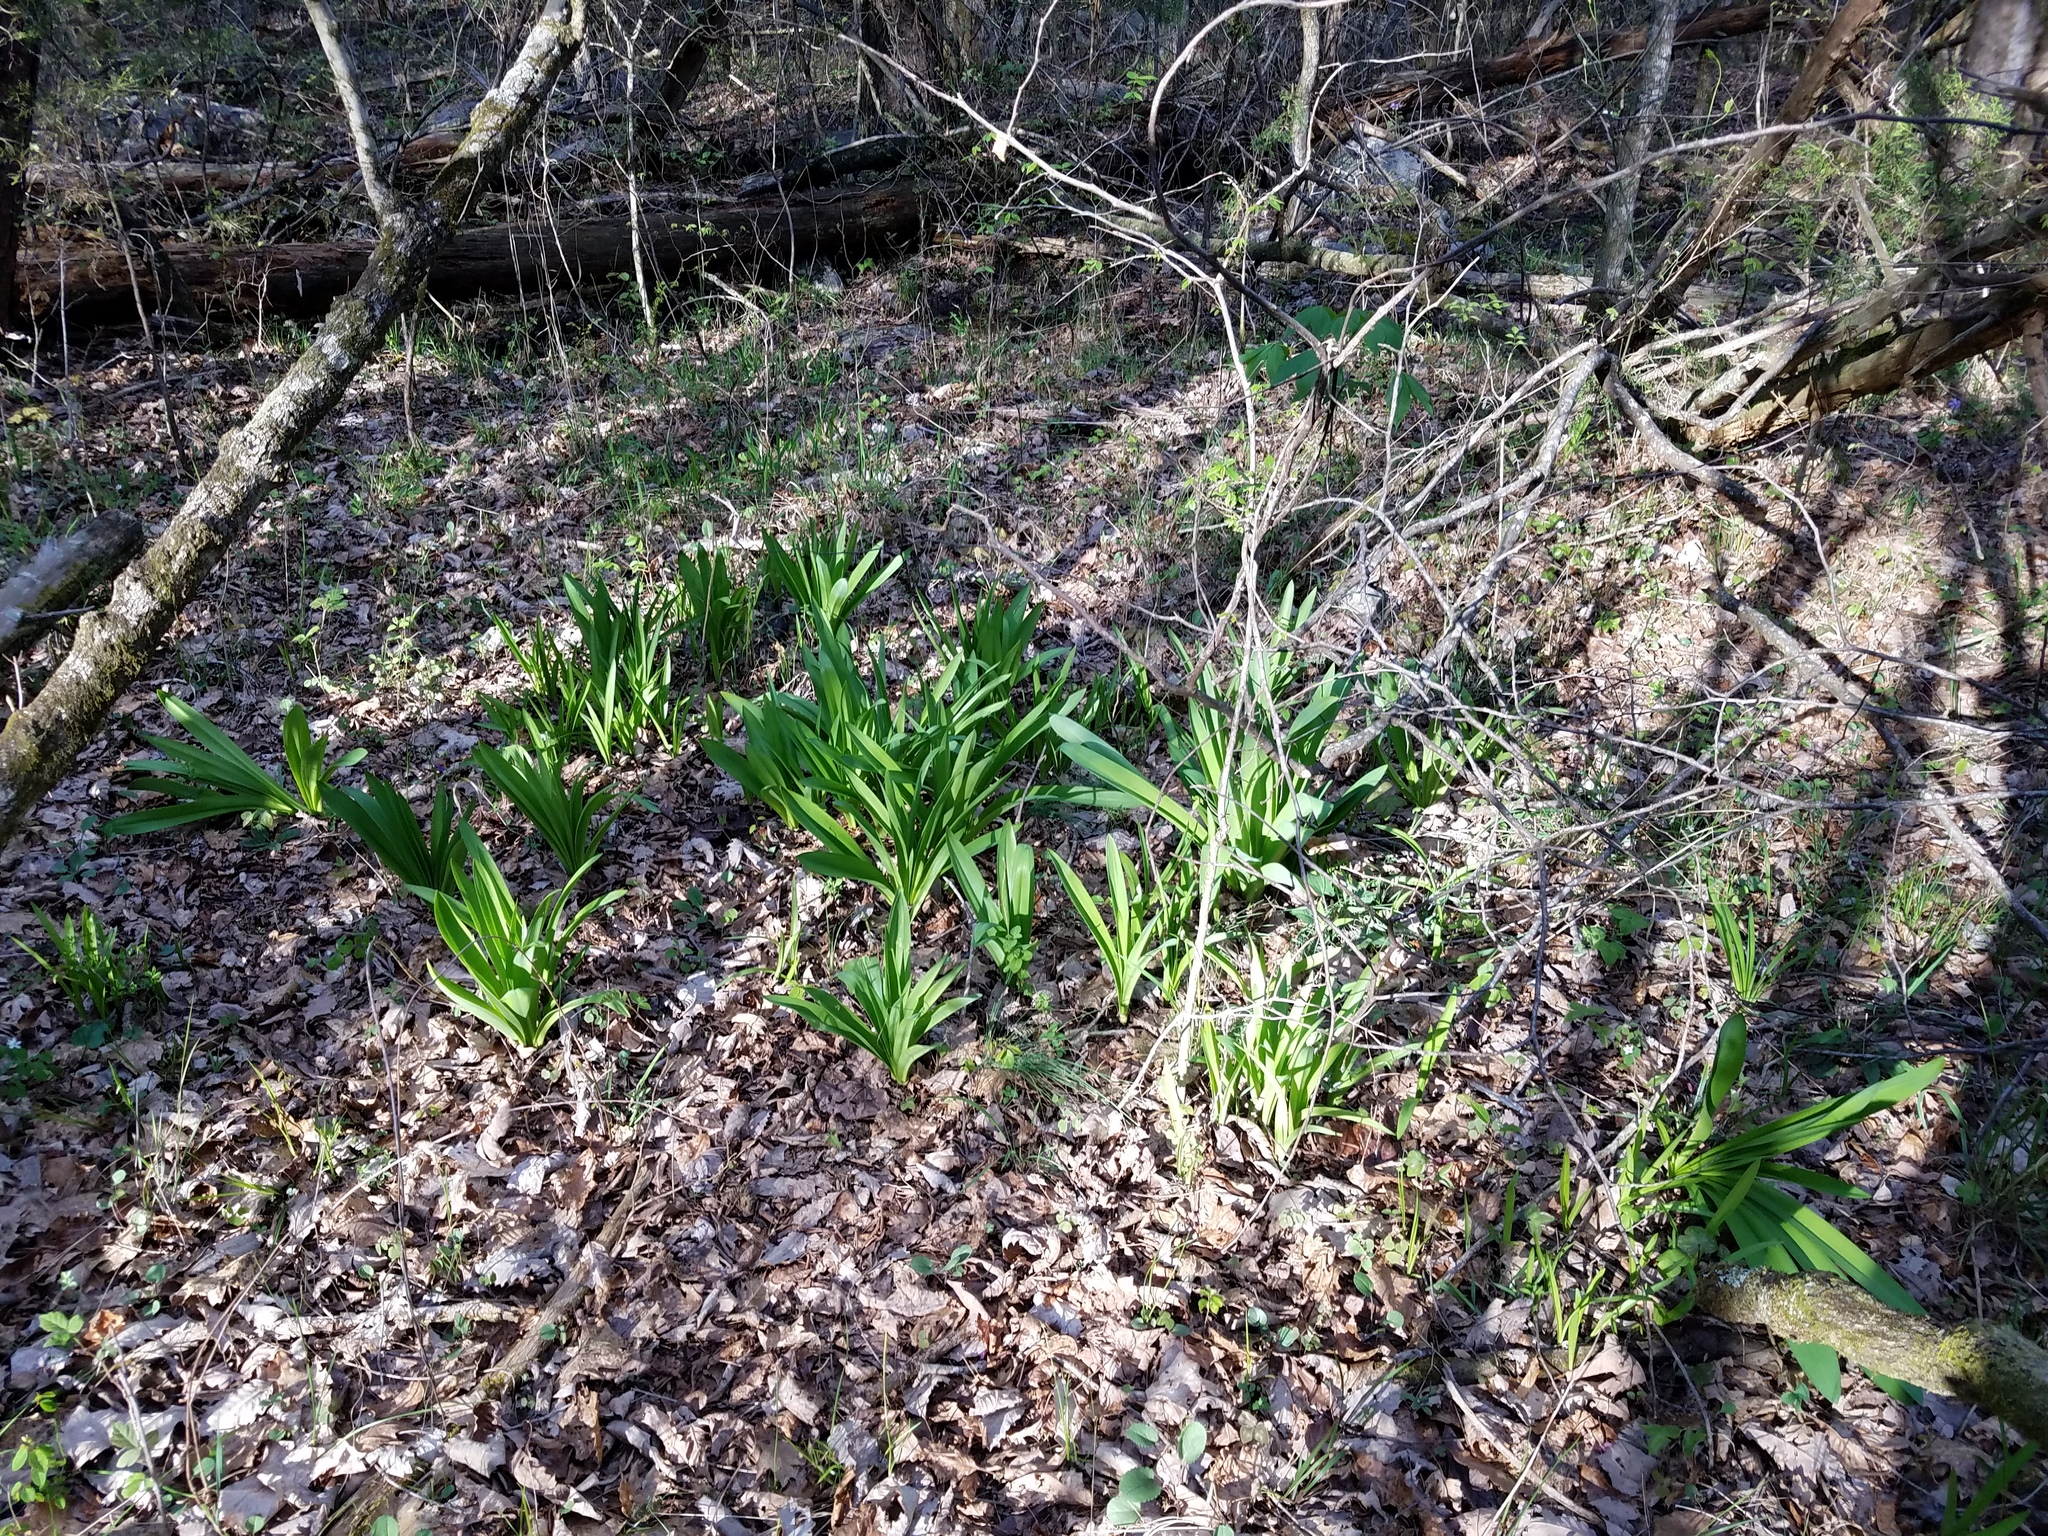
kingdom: Plantae
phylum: Tracheophyta
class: Liliopsida
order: Asparagales
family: Amaryllidaceae
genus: Hymenocallis
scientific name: Hymenocallis occidentalis
